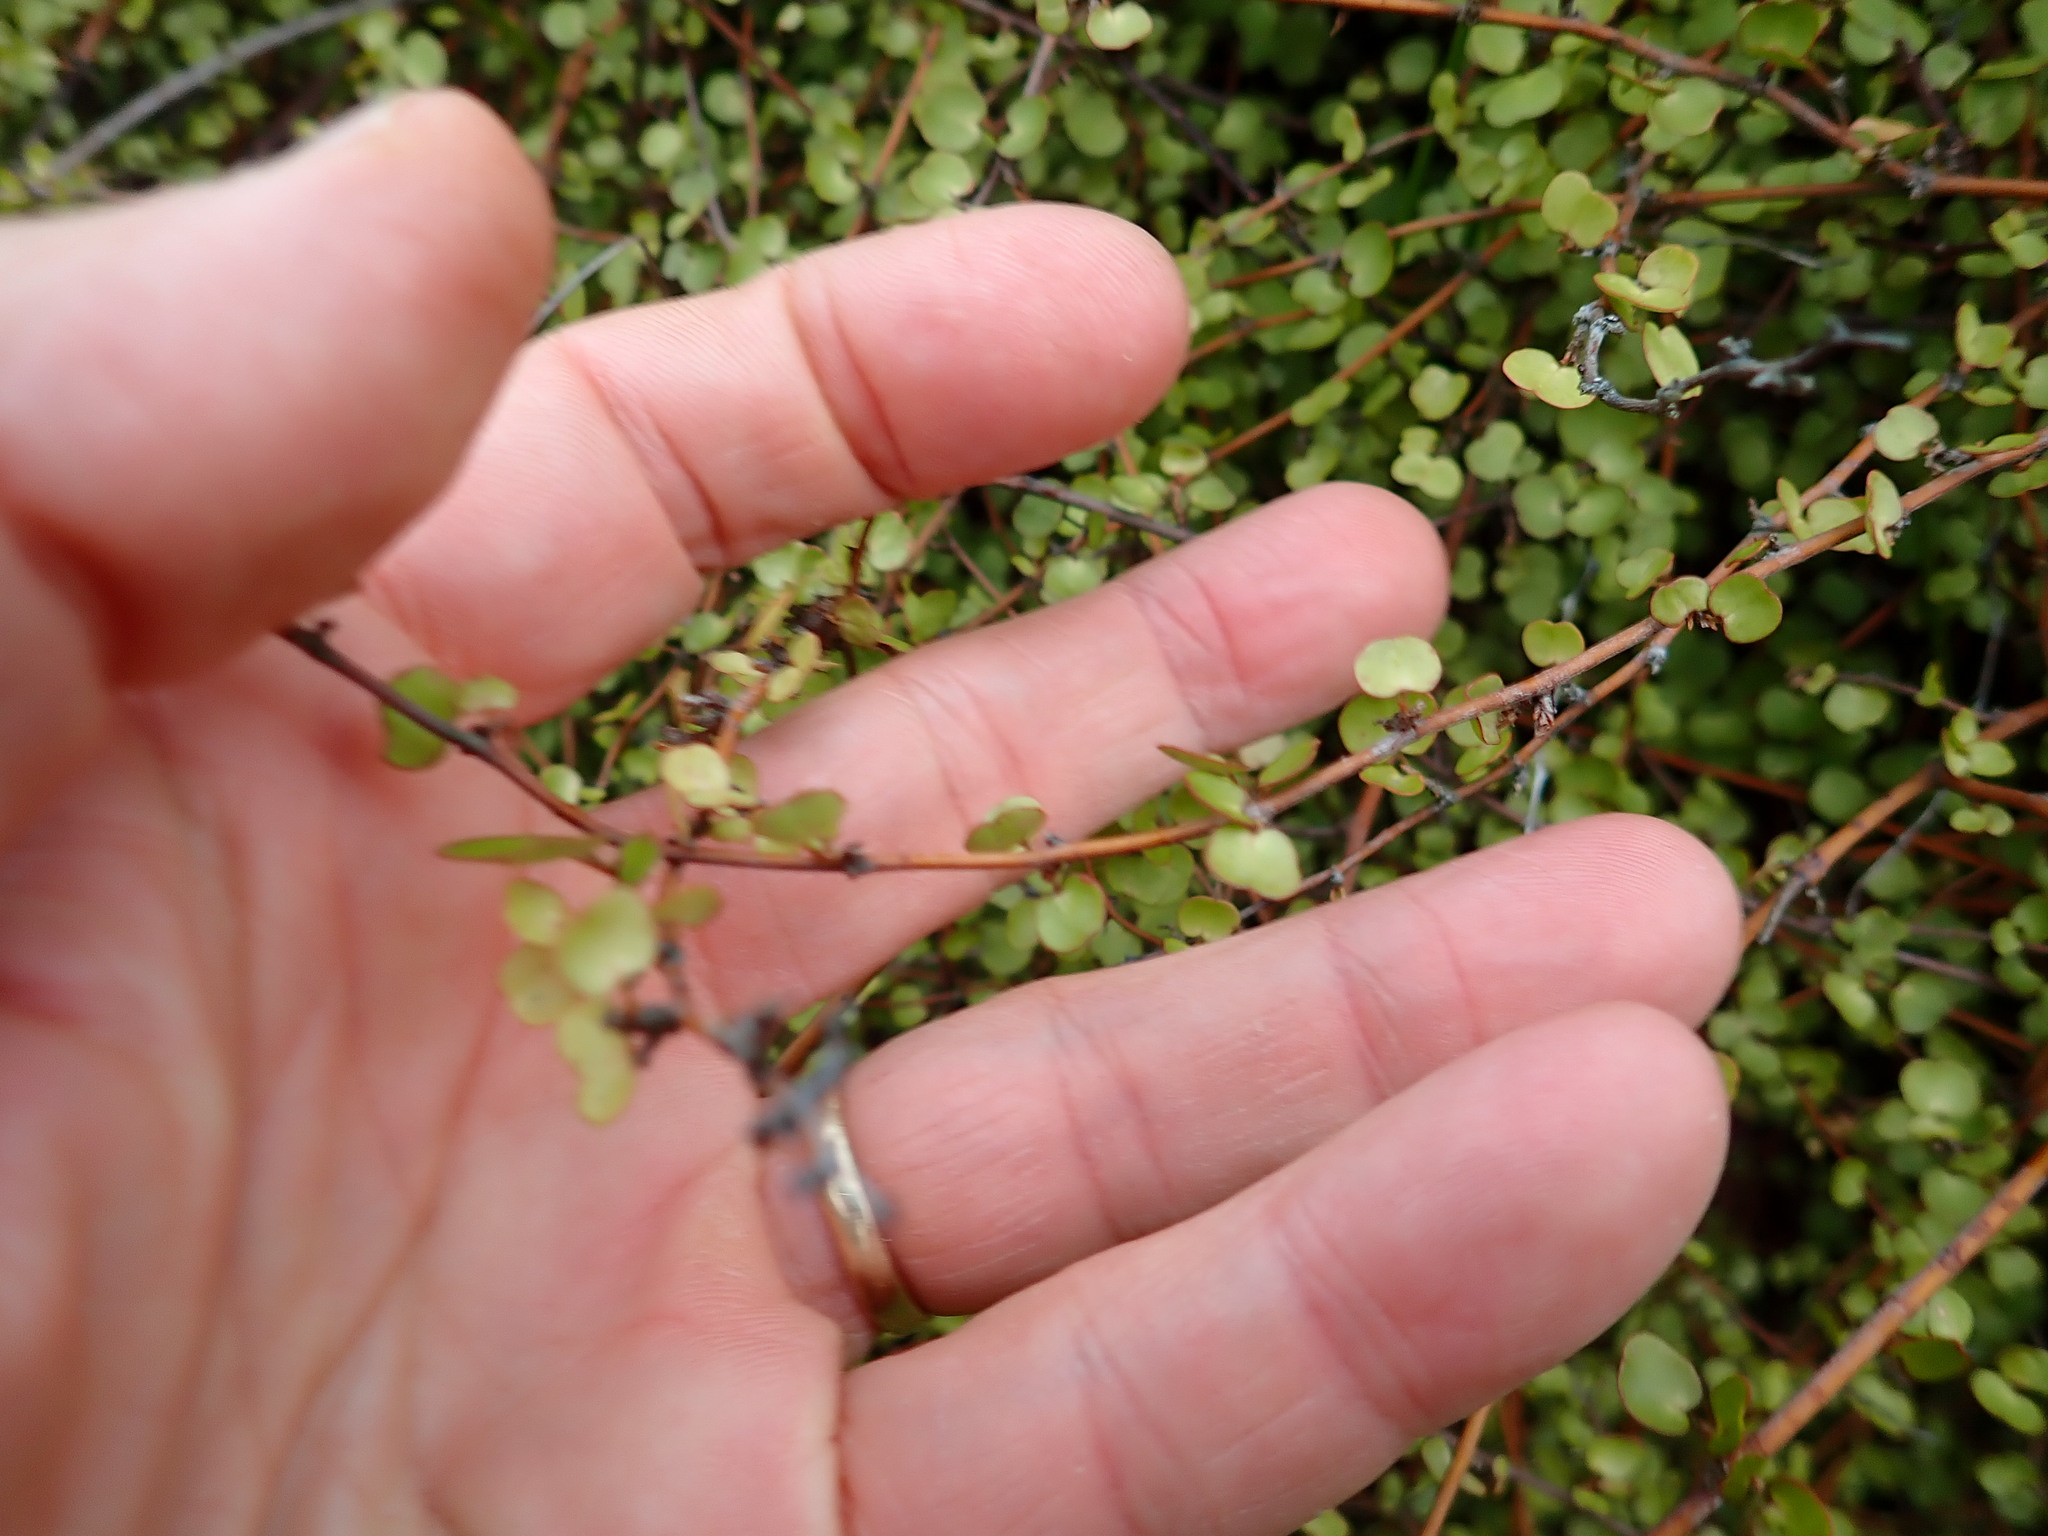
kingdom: Plantae
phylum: Tracheophyta
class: Magnoliopsida
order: Caryophyllales
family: Polygonaceae
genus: Muehlenbeckia
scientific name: Muehlenbeckia complexa
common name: Wireplant
